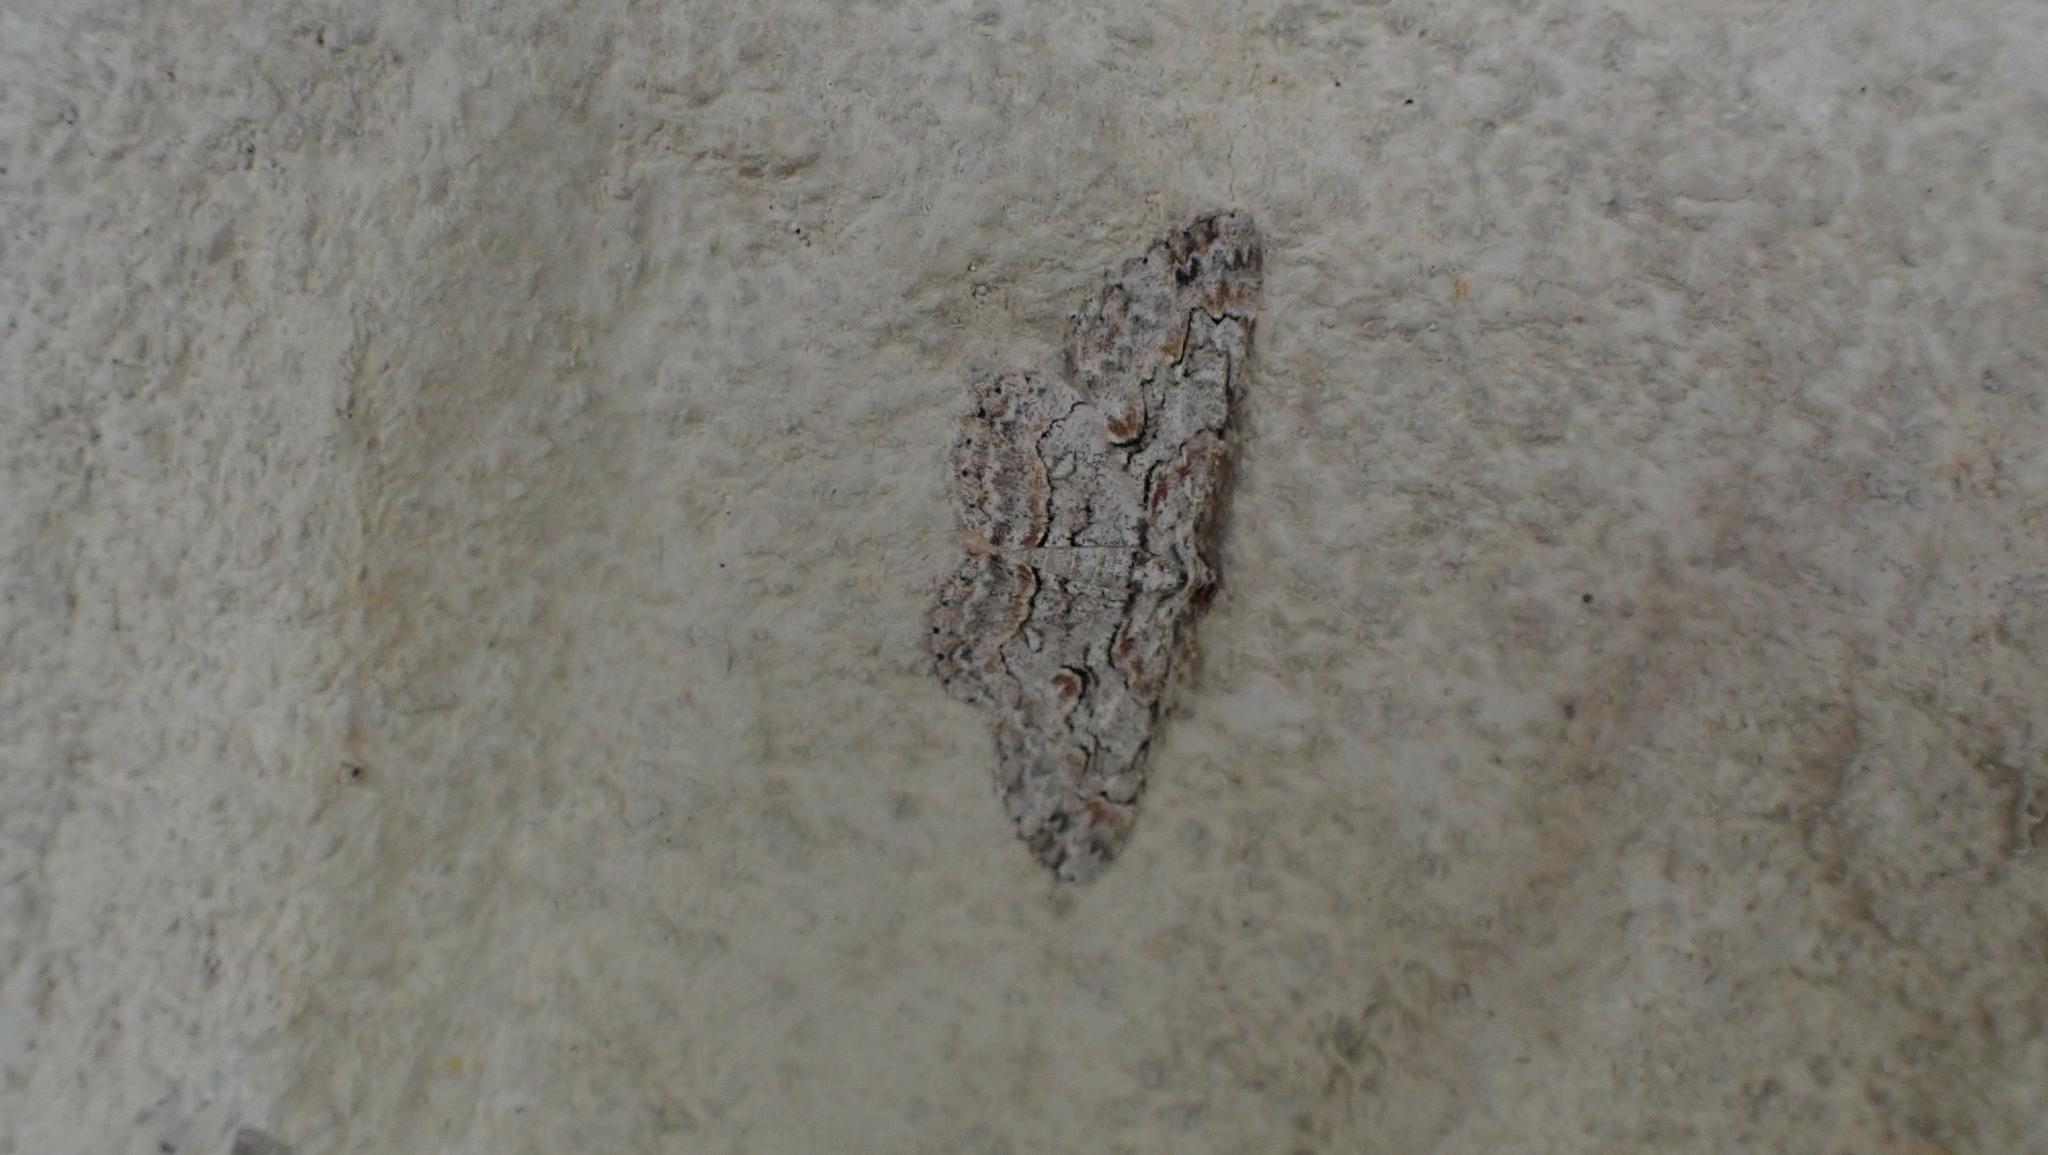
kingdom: Animalia
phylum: Arthropoda
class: Insecta
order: Lepidoptera
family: Geometridae
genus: Iridopsis
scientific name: Iridopsis defectaria
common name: Brown-shaded gray
